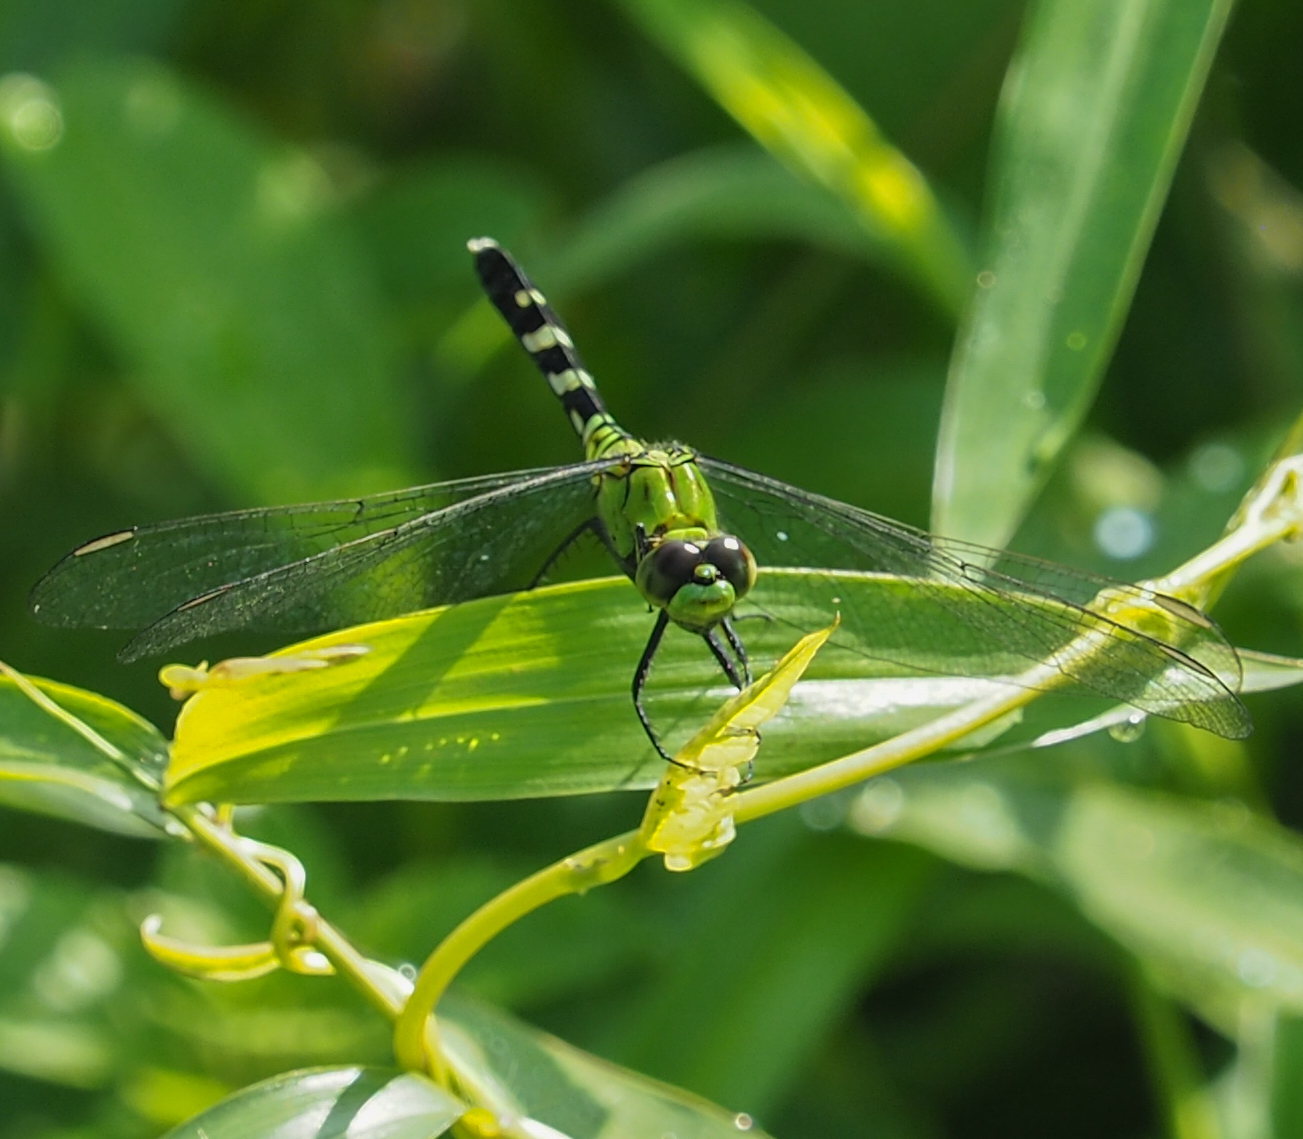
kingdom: Animalia
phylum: Arthropoda
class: Insecta
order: Odonata
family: Libellulidae
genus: Erythemis
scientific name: Erythemis simplicicollis
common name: Eastern pondhawk
